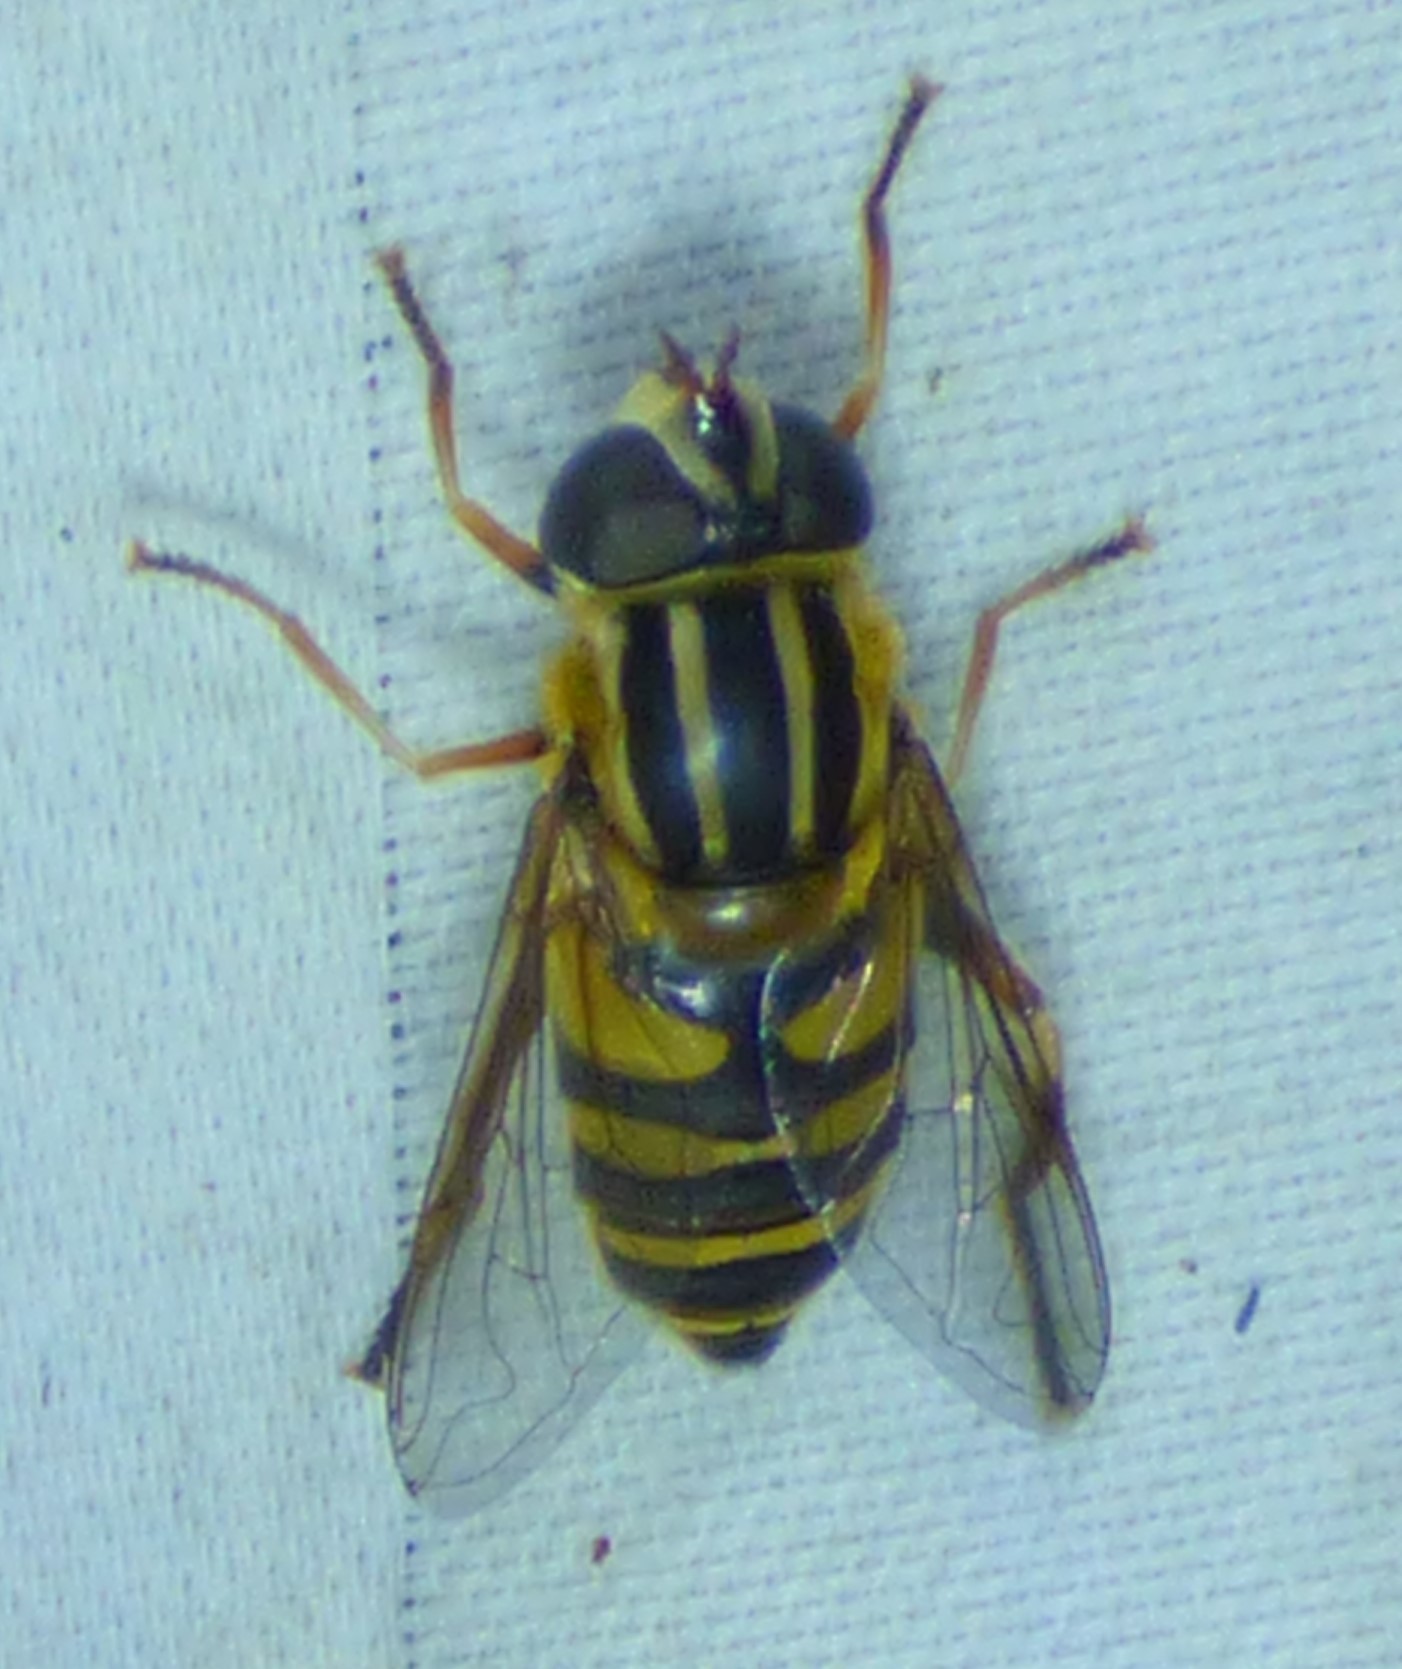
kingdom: Animalia
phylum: Arthropoda
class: Insecta
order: Diptera
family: Syrphidae
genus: Helophilus
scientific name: Helophilus fasciatus
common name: Narrow-headed marsh fly
